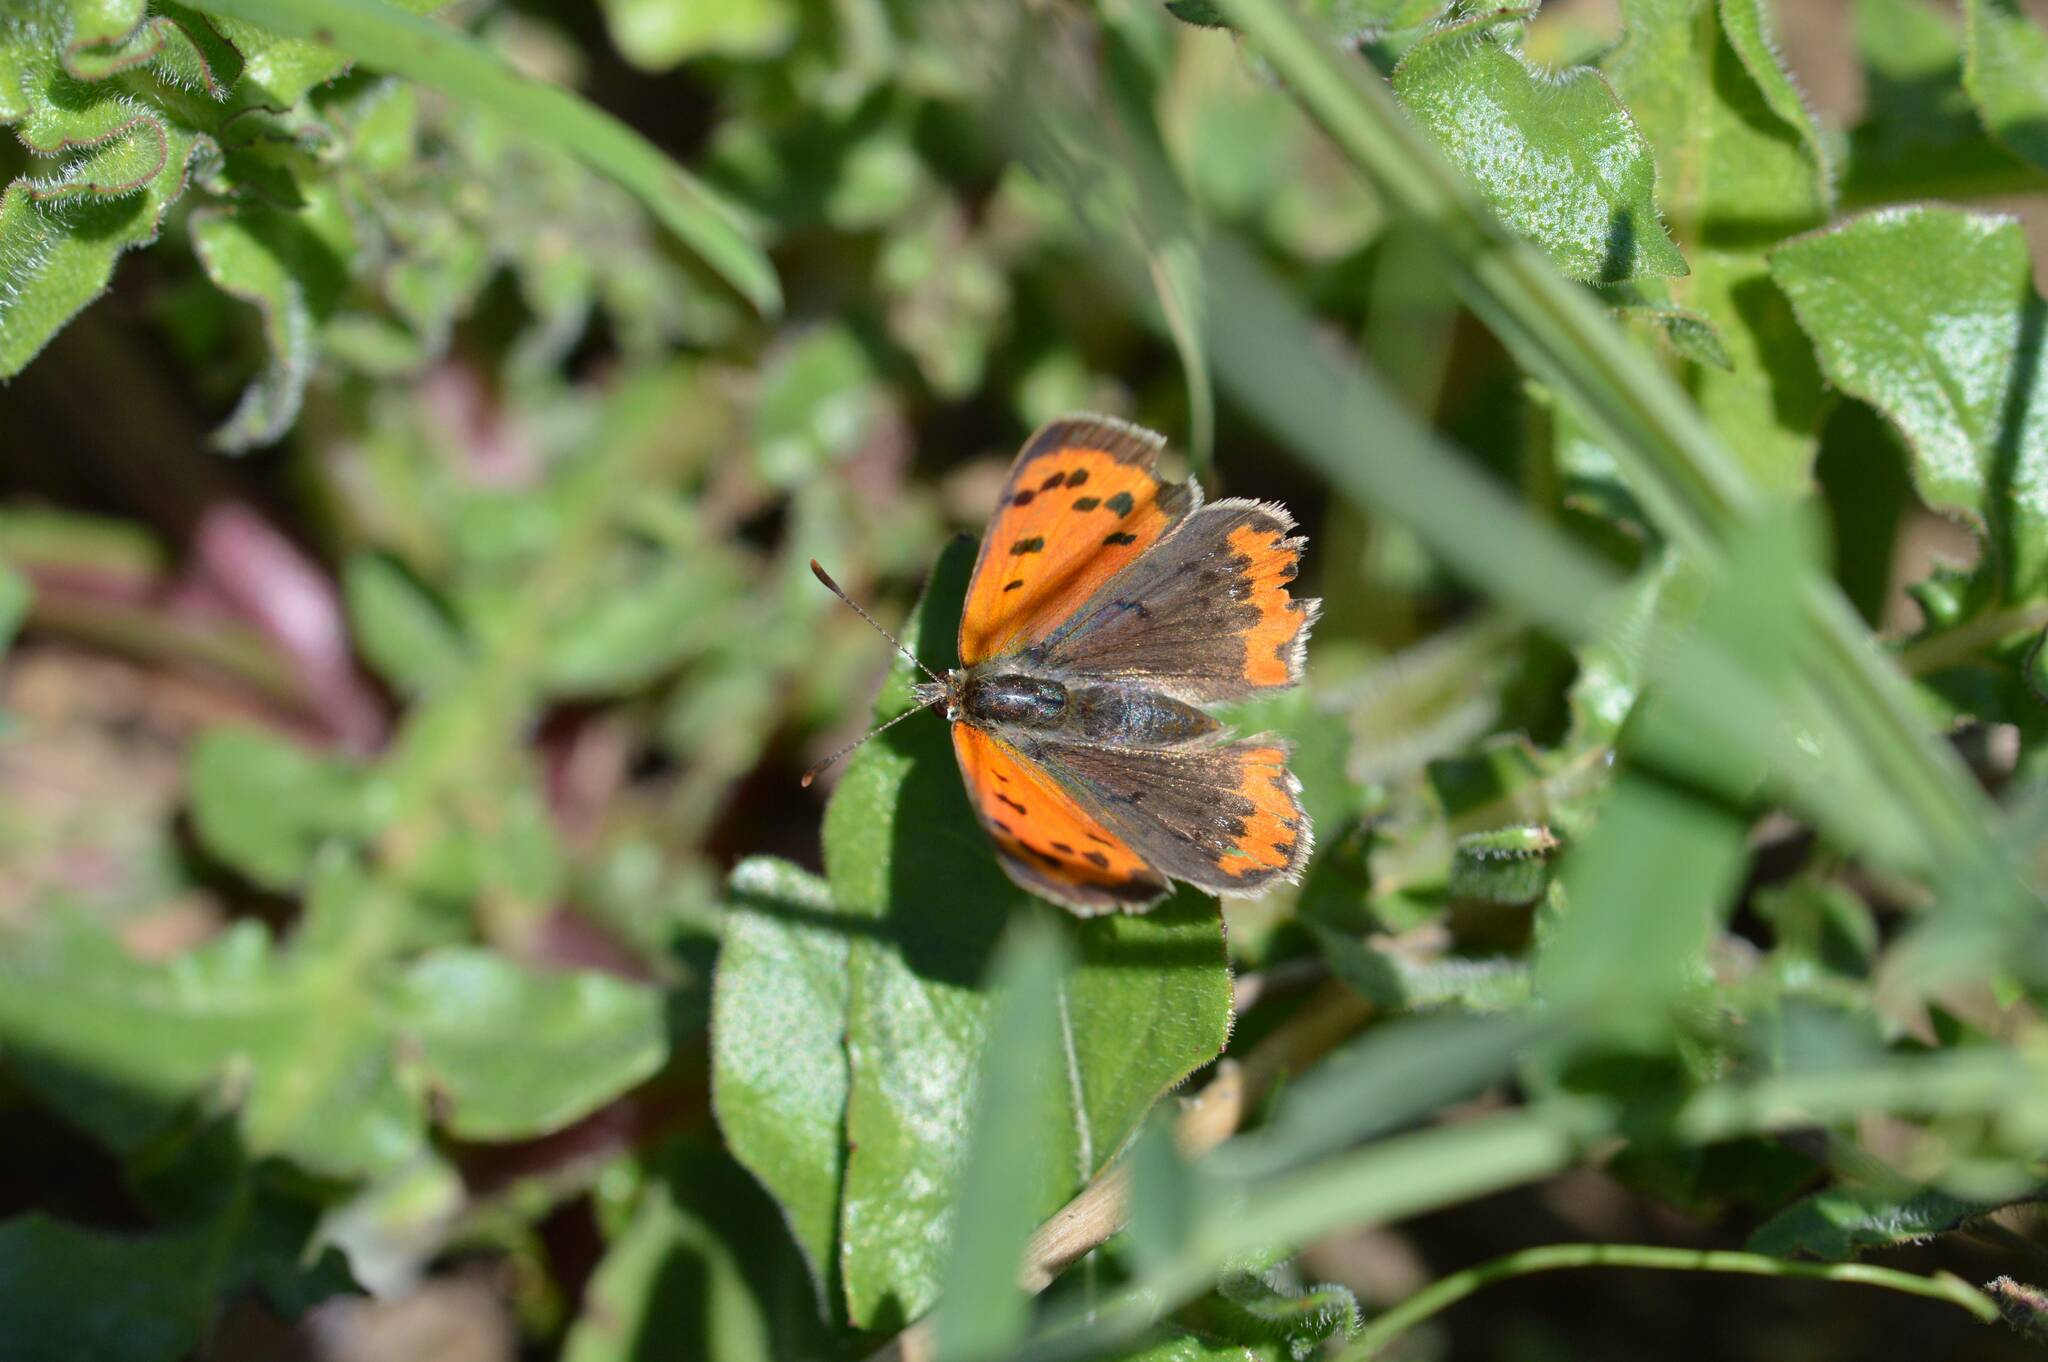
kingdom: Animalia
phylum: Arthropoda
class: Insecta
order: Lepidoptera
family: Lycaenidae
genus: Lycaena
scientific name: Lycaena phlaeas
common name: Small copper
